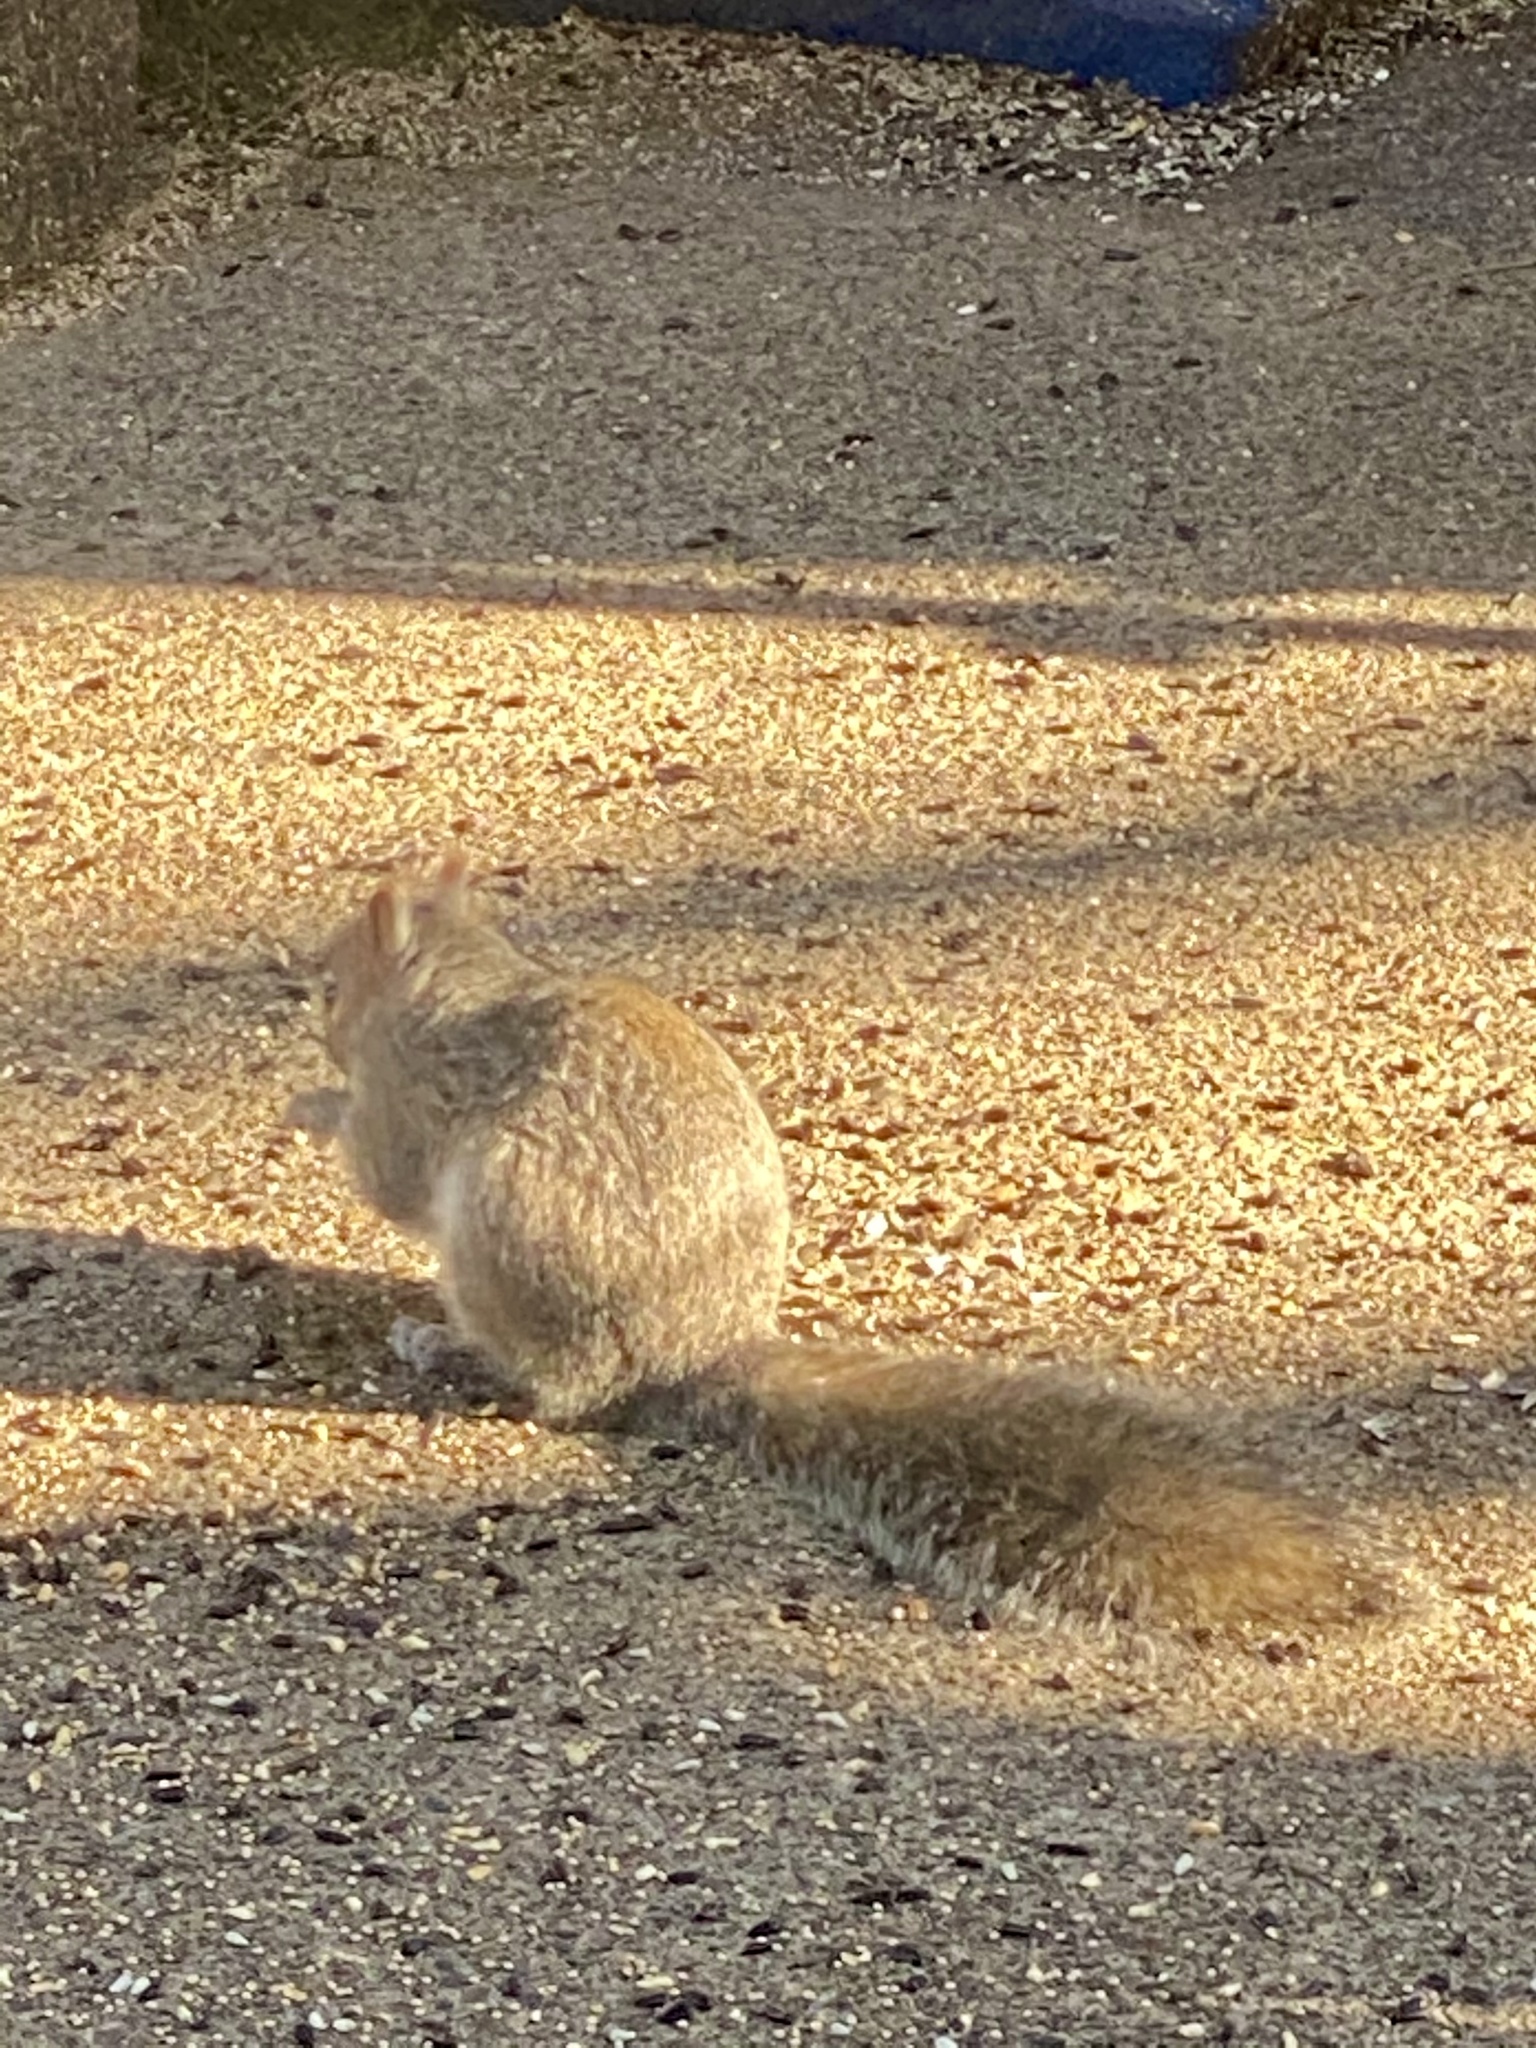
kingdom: Animalia
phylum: Chordata
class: Mammalia
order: Rodentia
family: Sciuridae
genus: Sciurus
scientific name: Sciurus carolinensis
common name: Eastern gray squirrel
